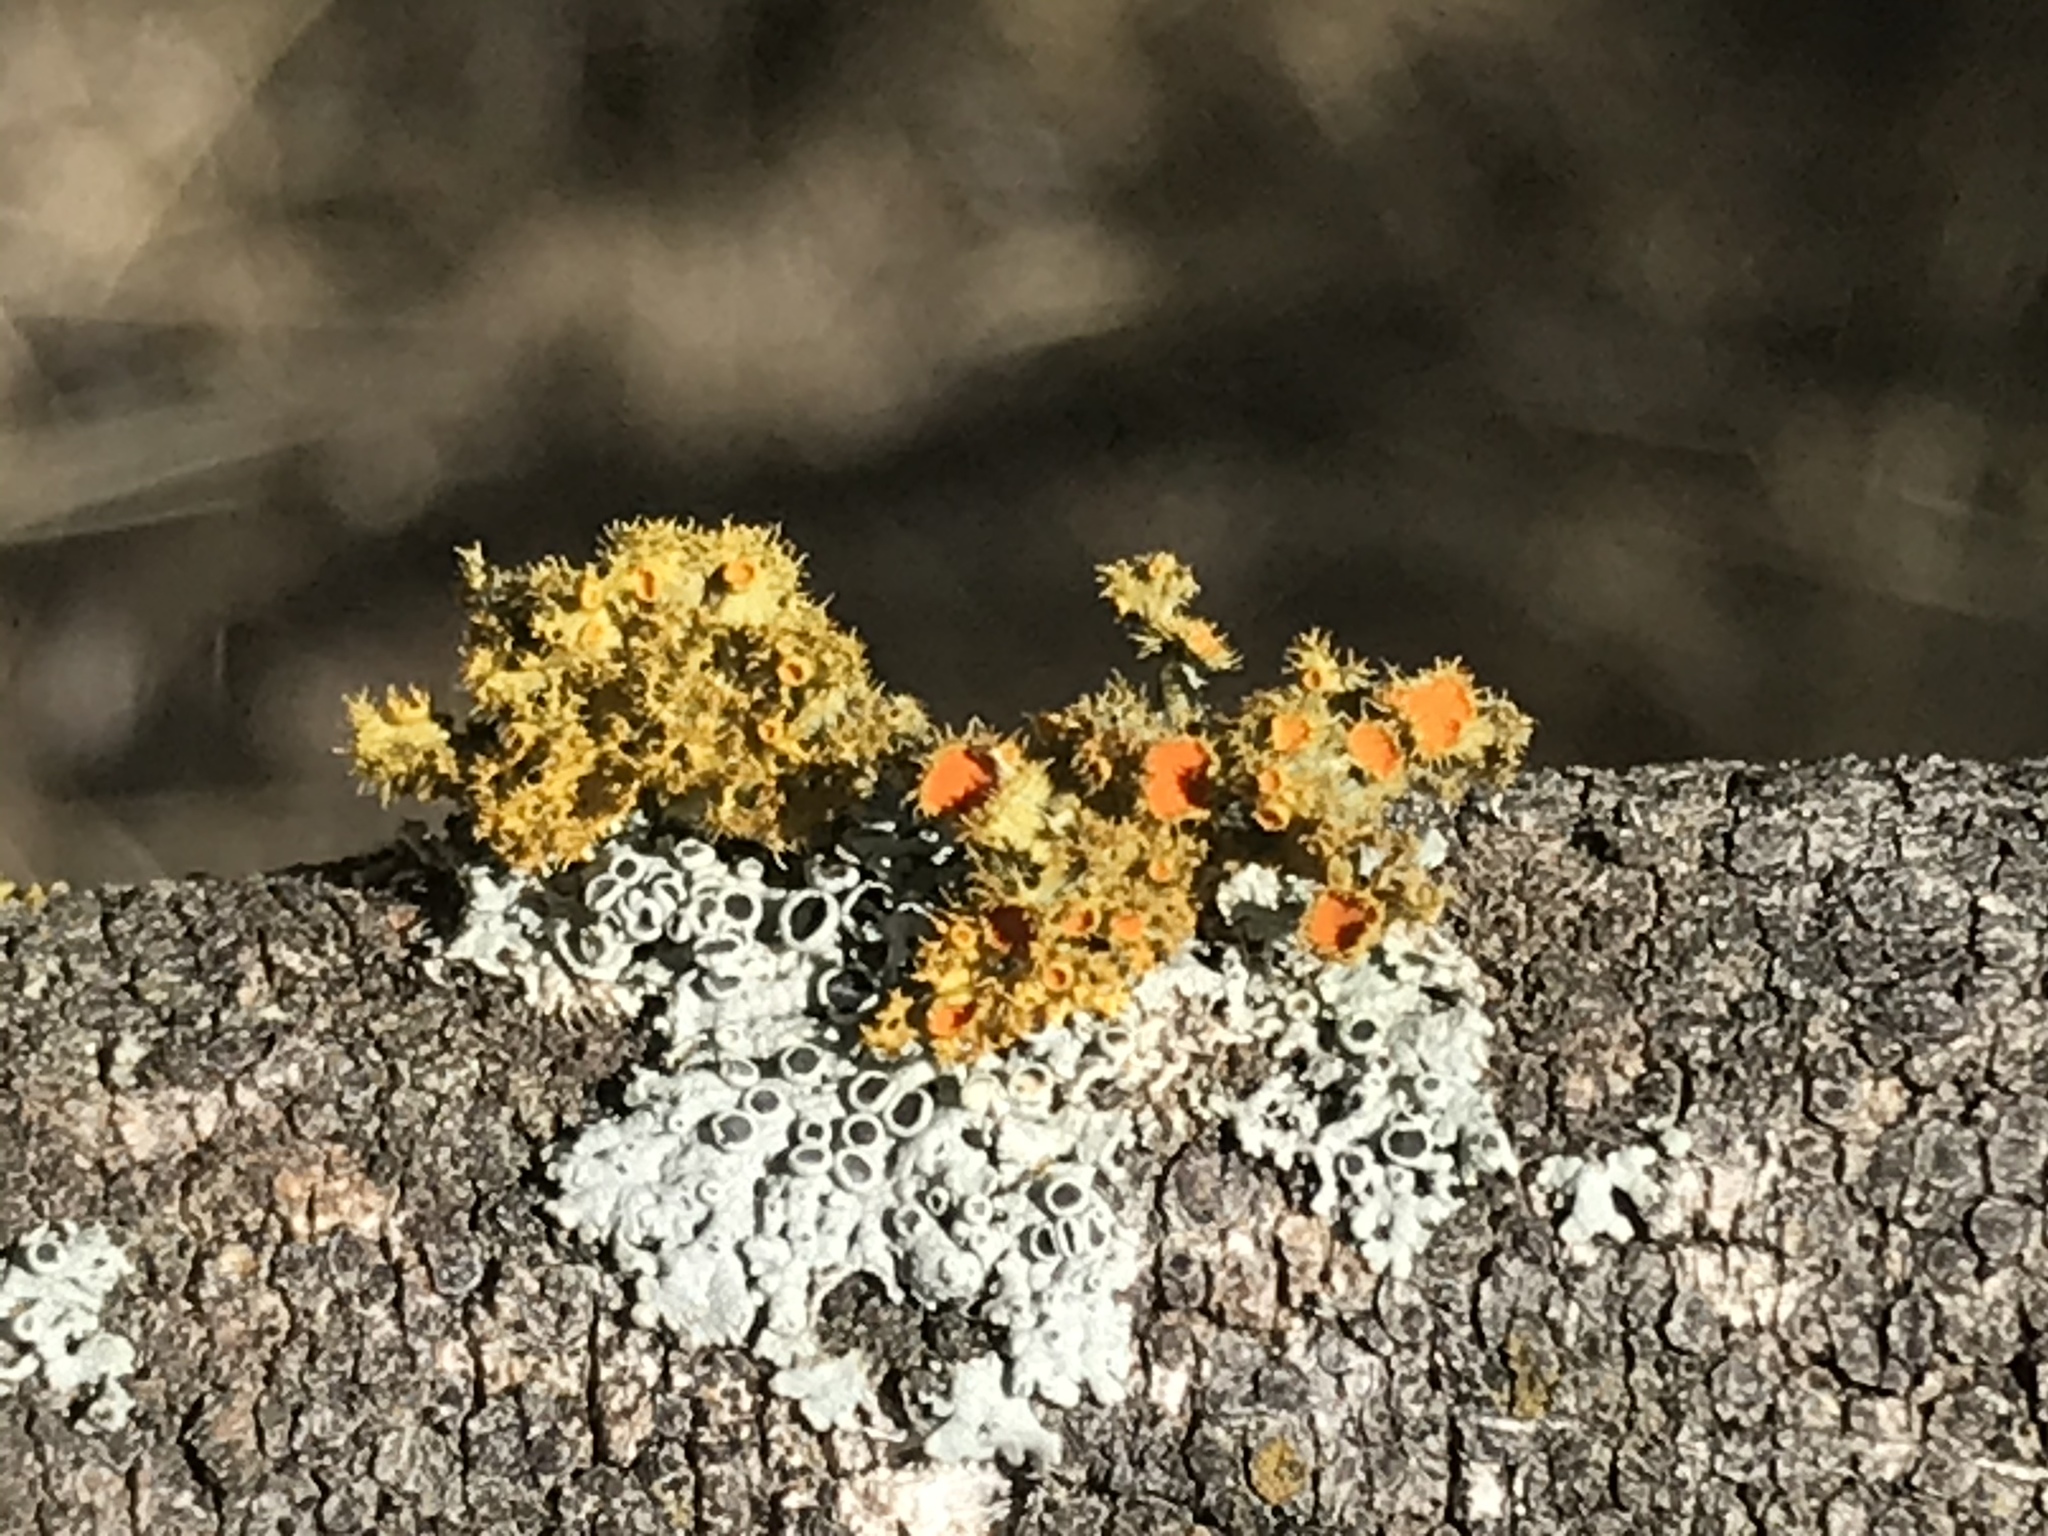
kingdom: Fungi
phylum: Ascomycota
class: Lecanoromycetes
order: Teloschistales
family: Teloschistaceae
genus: Niorma
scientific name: Niorma chrysophthalma
